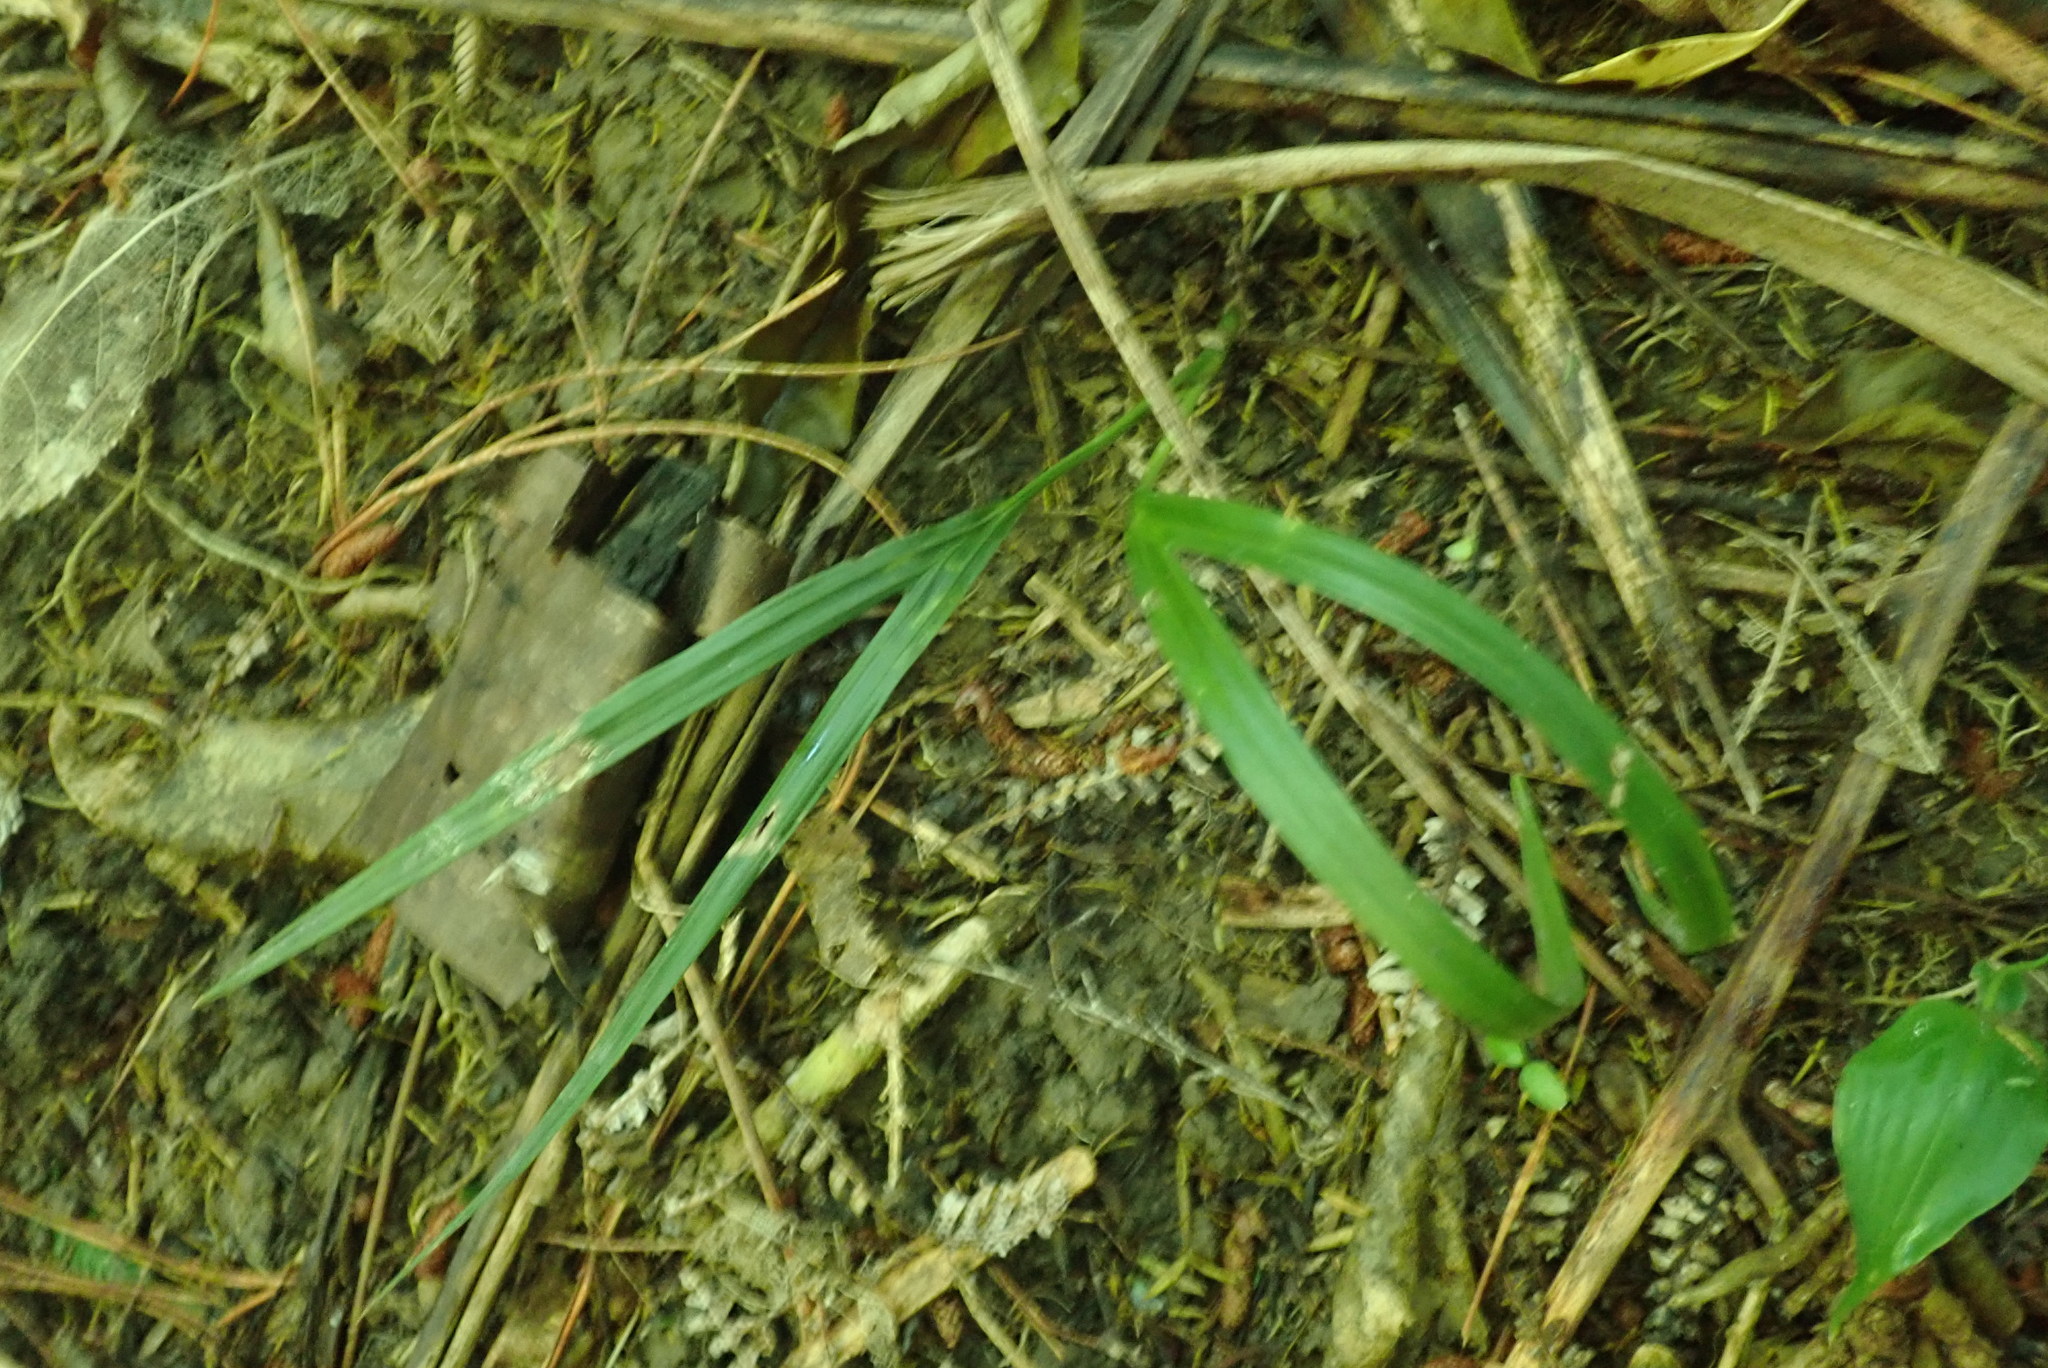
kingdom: Plantae
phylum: Tracheophyta
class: Liliopsida
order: Arecales
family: Arecaceae
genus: Rhopalostylis
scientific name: Rhopalostylis sapida
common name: Feather-duster palm
